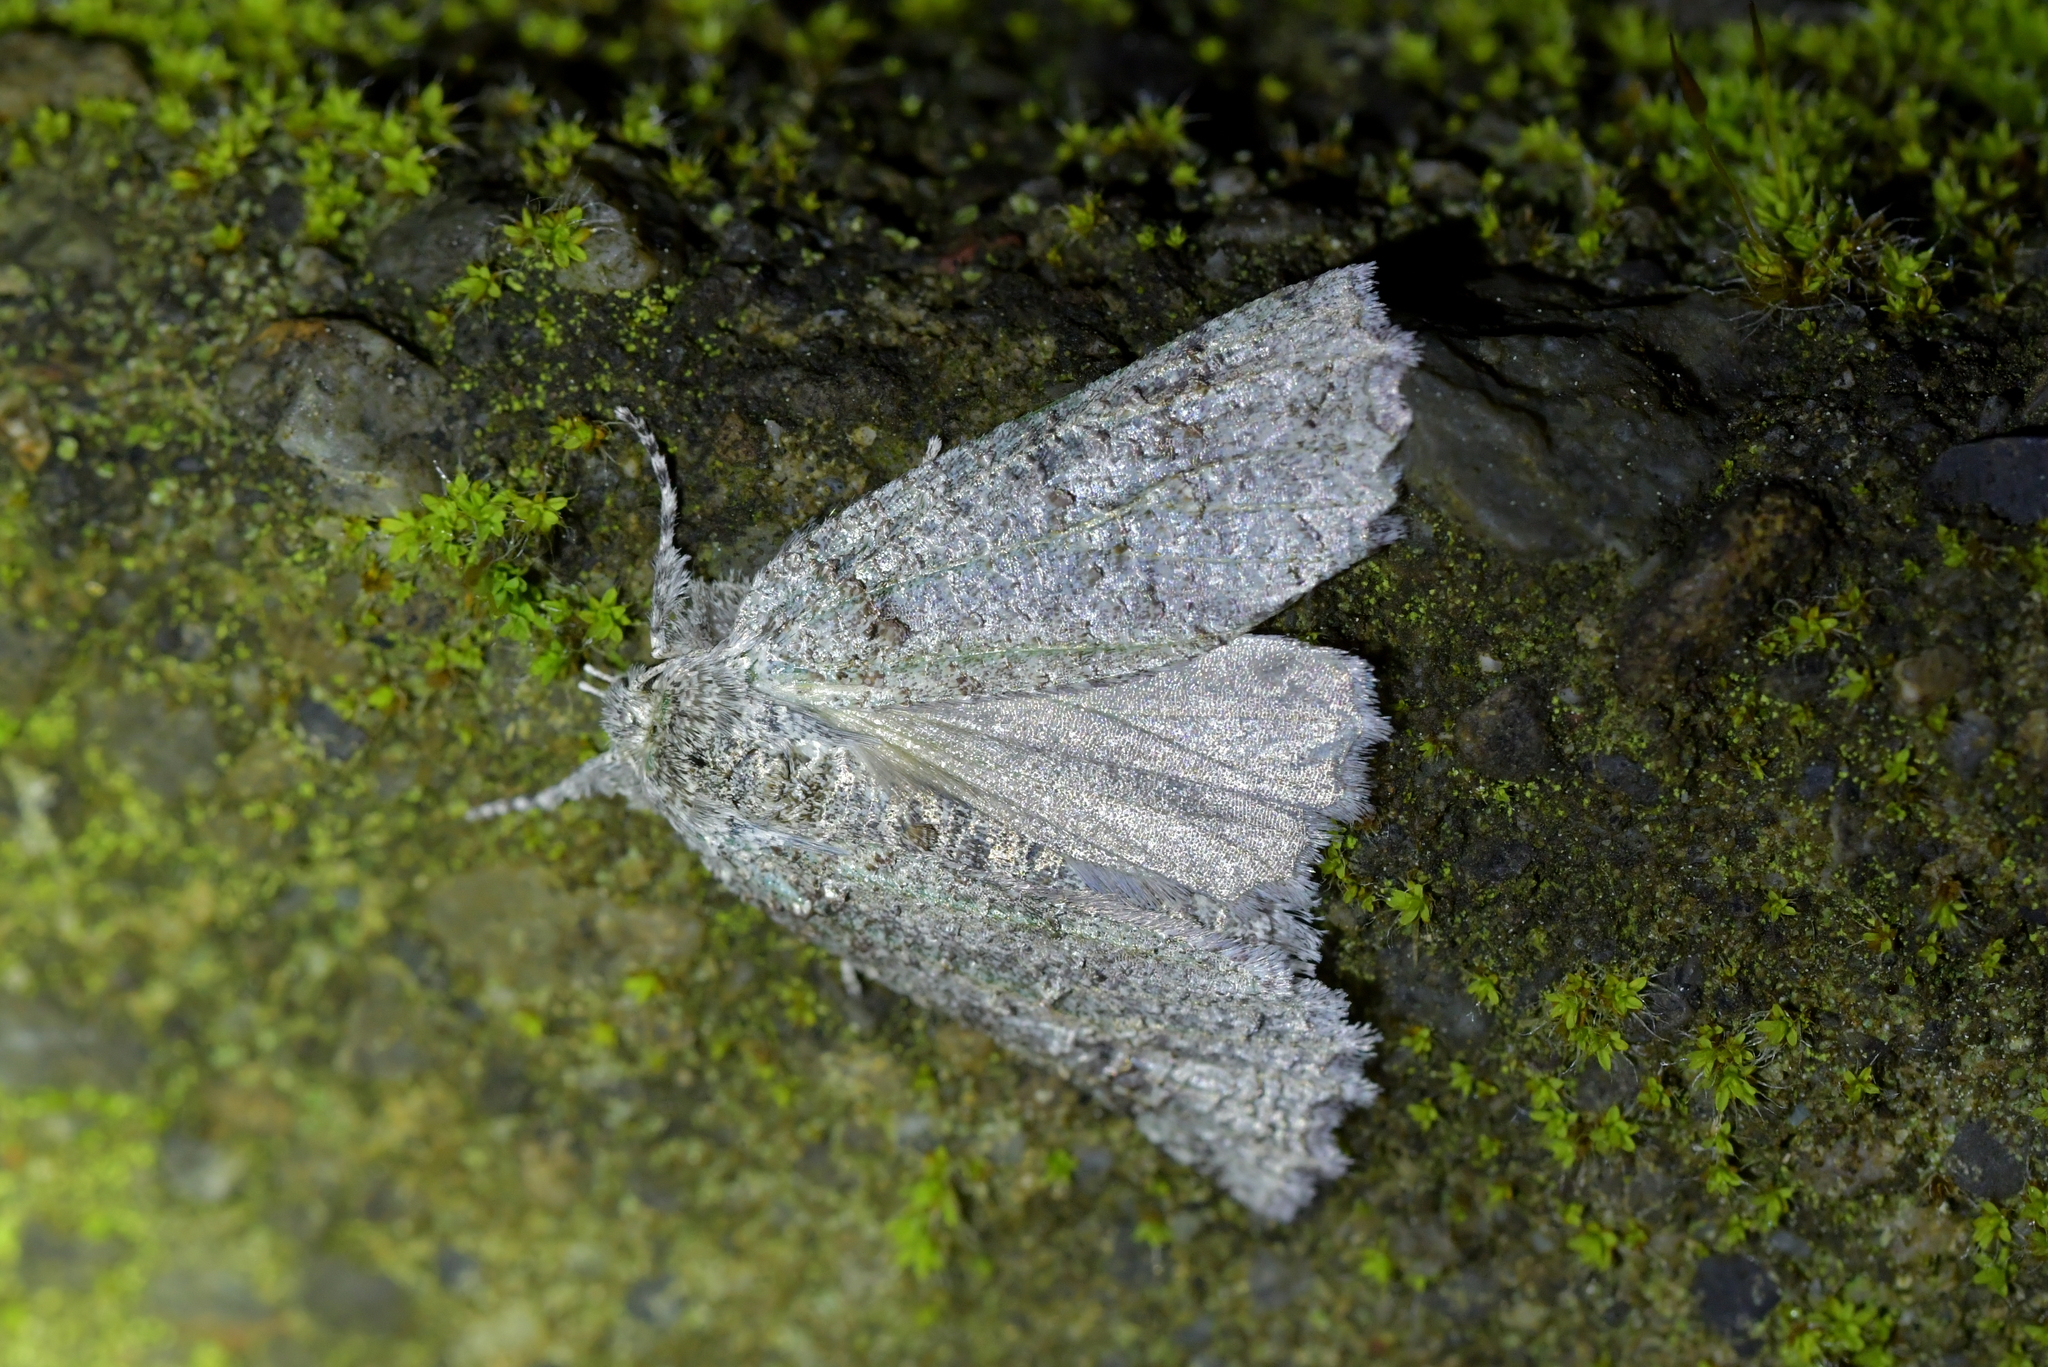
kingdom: Animalia
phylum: Arthropoda
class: Insecta
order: Lepidoptera
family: Geometridae
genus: Declana
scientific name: Declana floccosa
